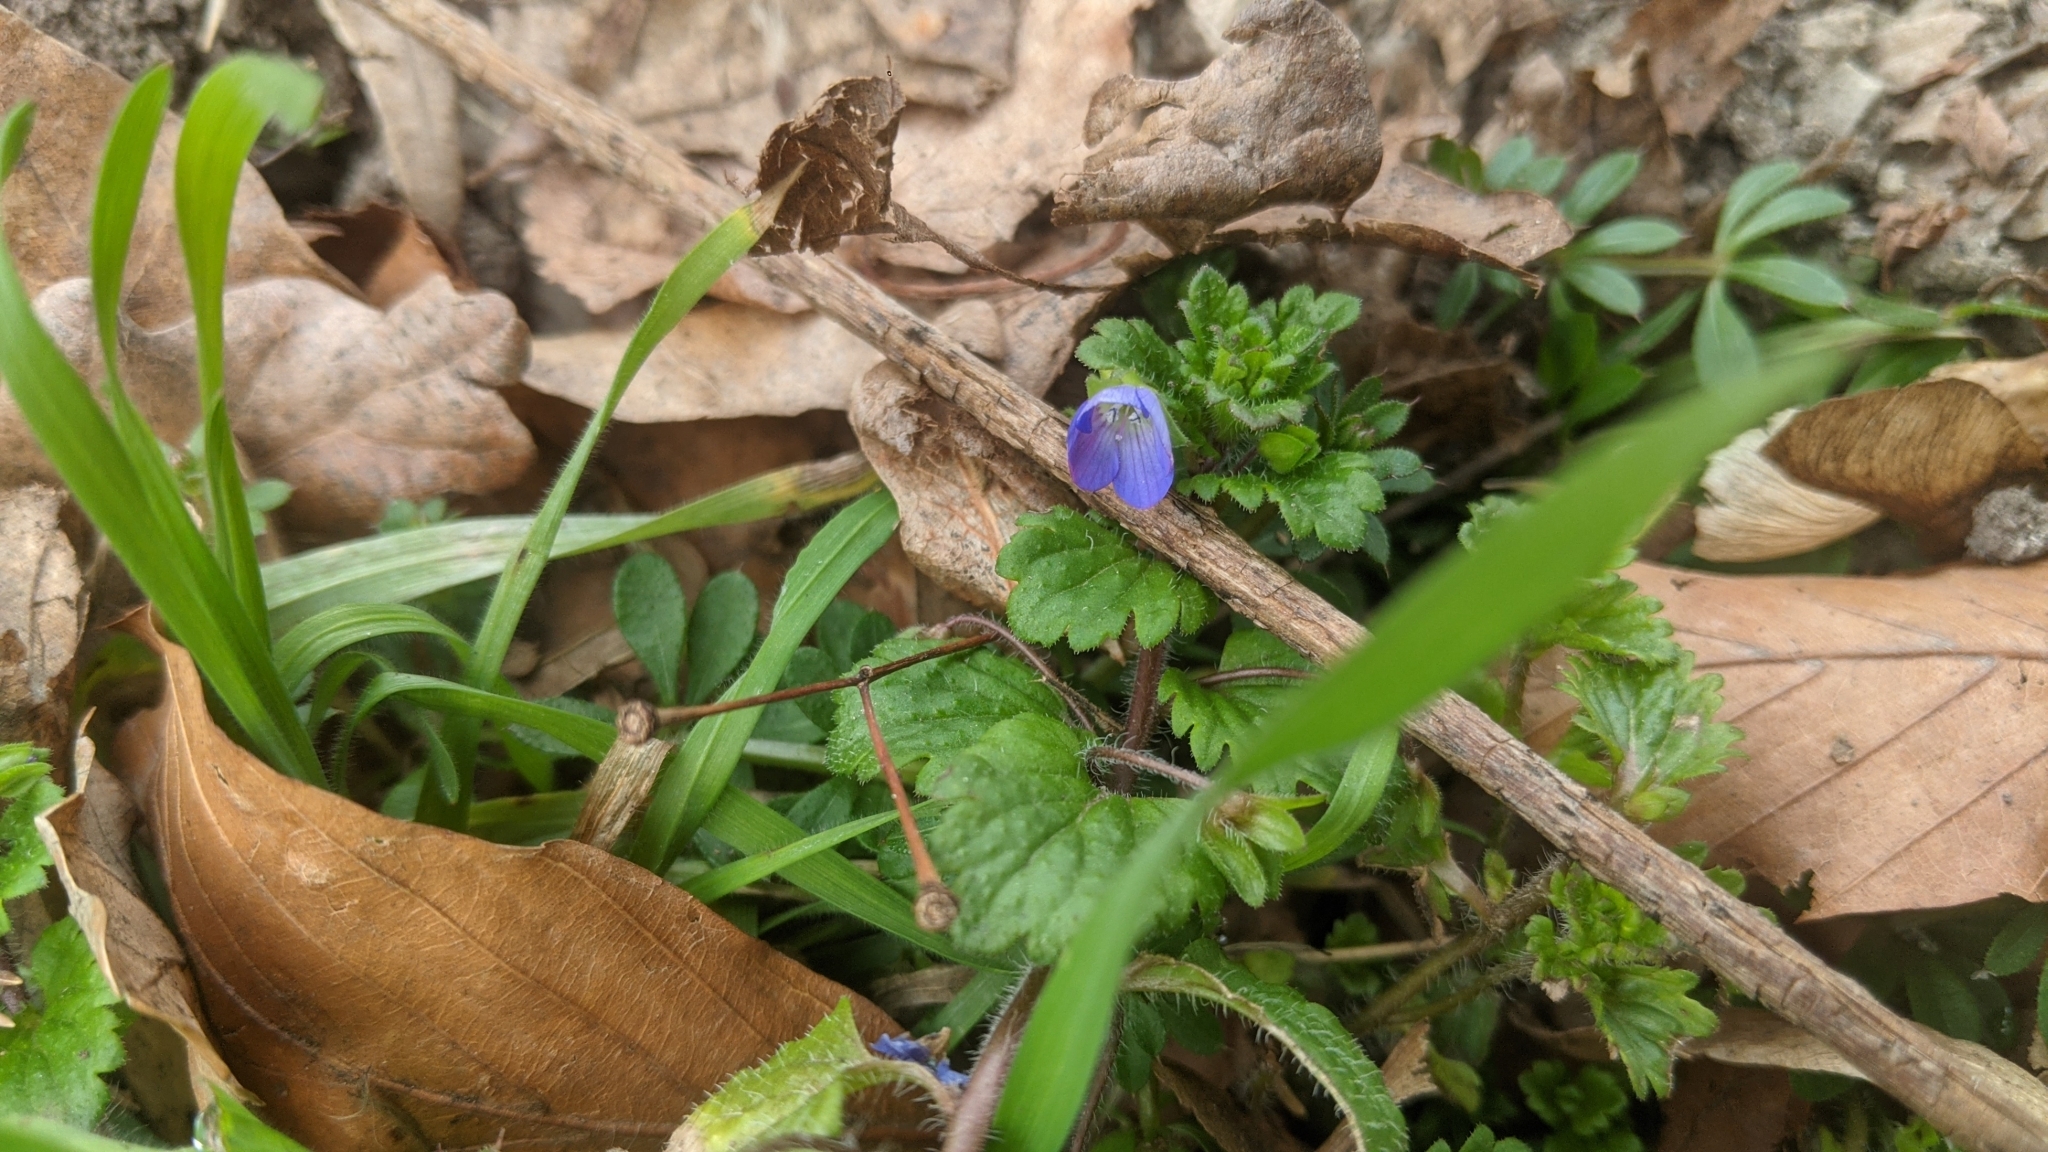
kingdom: Plantae
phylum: Tracheophyta
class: Magnoliopsida
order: Lamiales
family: Plantaginaceae
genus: Veronica
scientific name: Veronica persica
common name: Common field-speedwell
